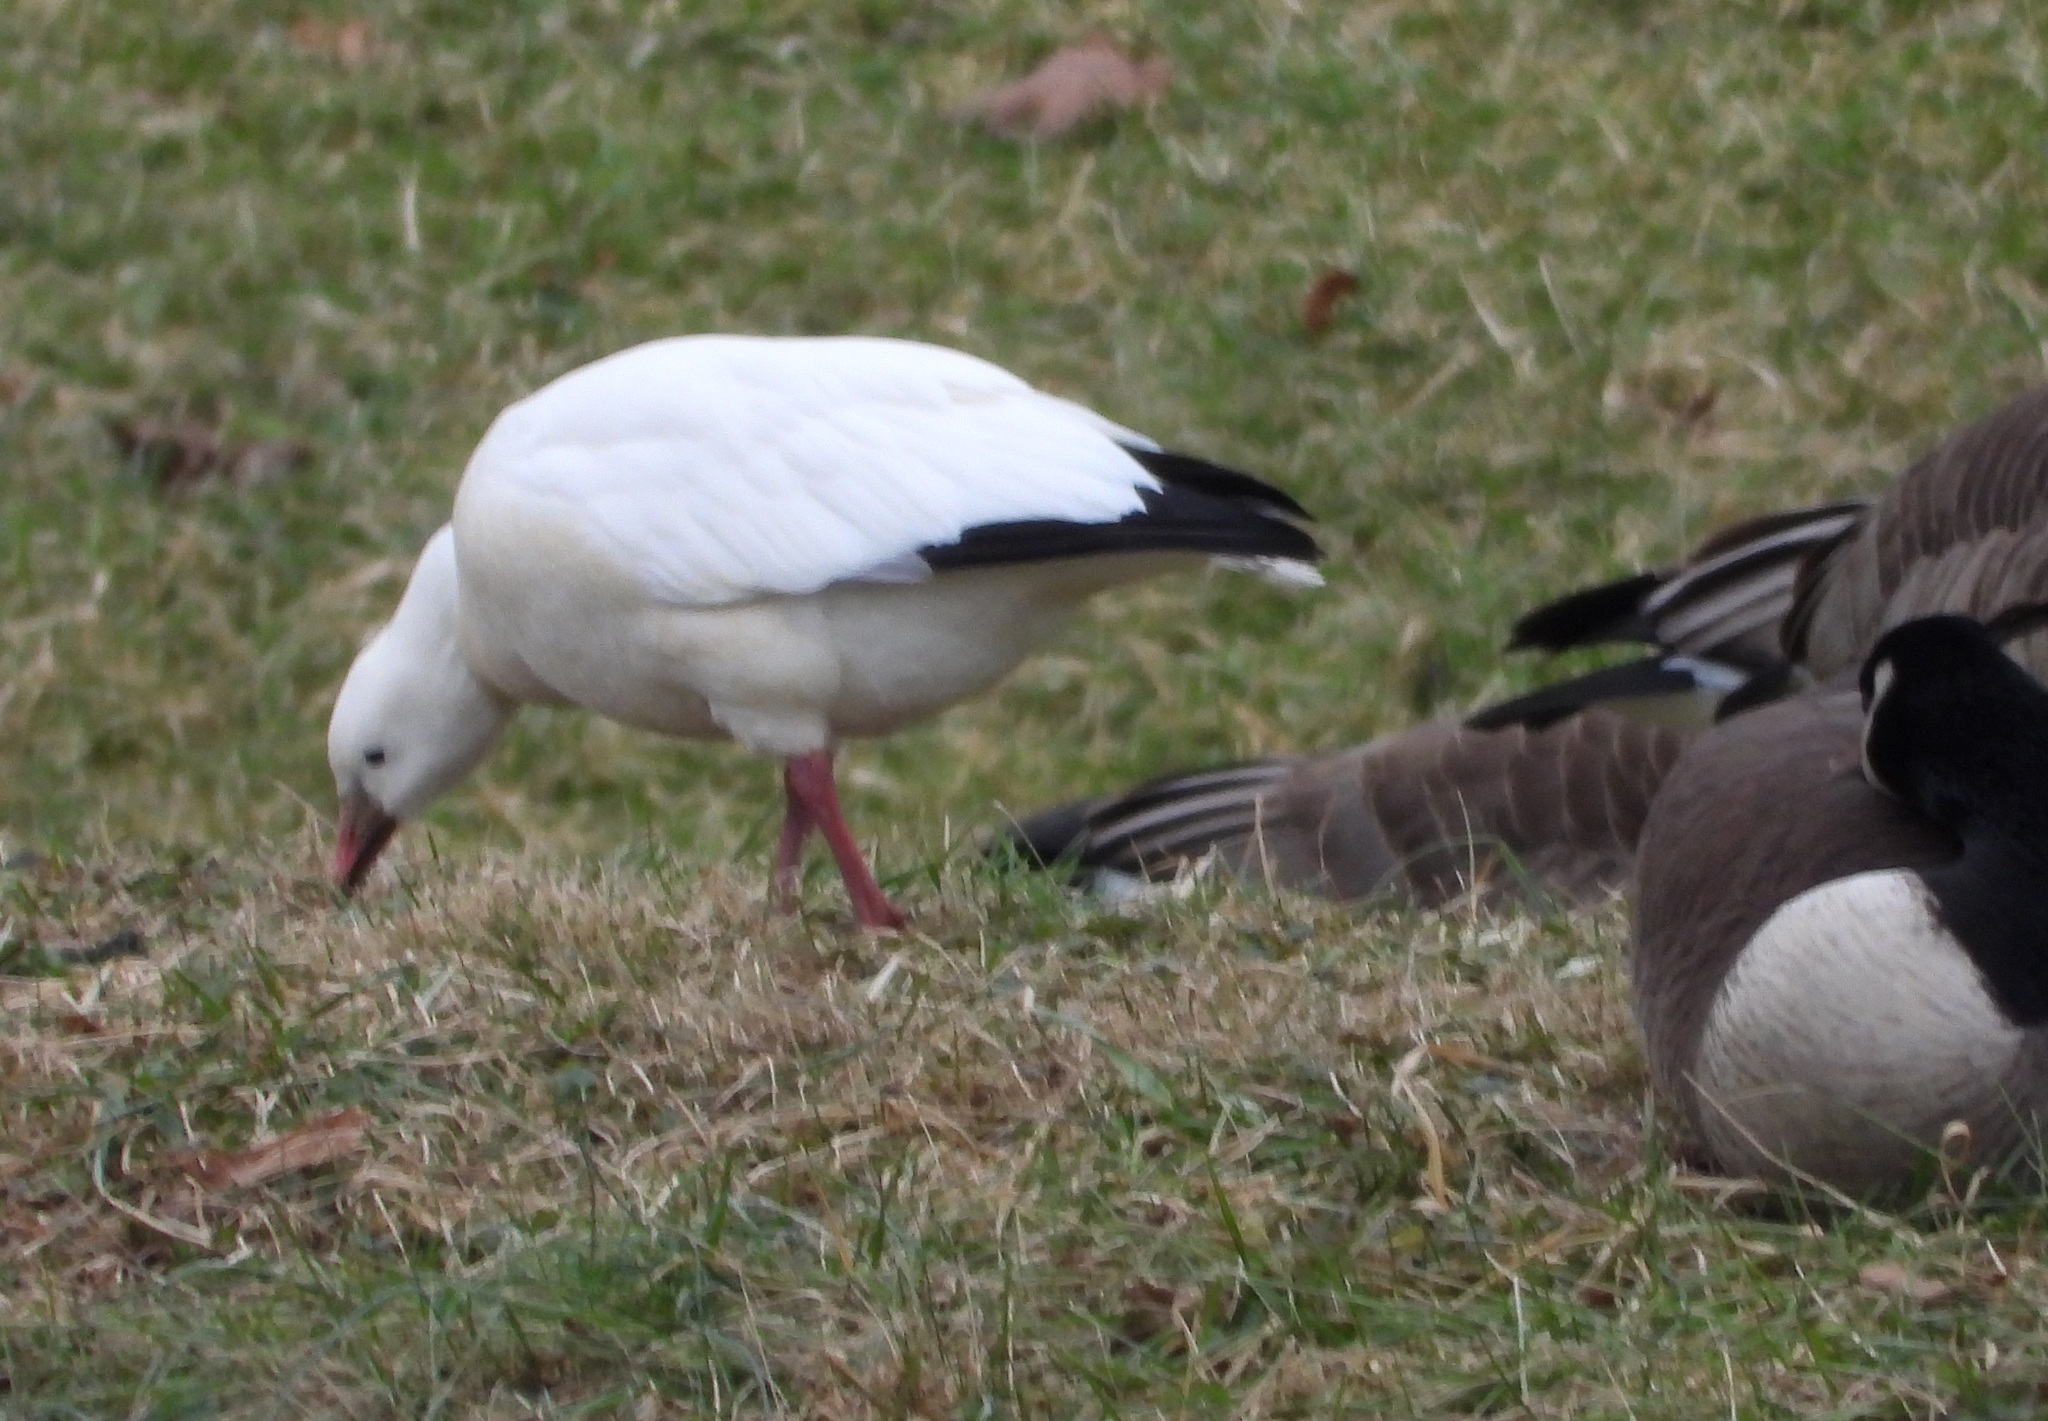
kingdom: Animalia
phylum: Chordata
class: Aves
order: Anseriformes
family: Anatidae
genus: Anser
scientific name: Anser rossii
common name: Ross's goose
